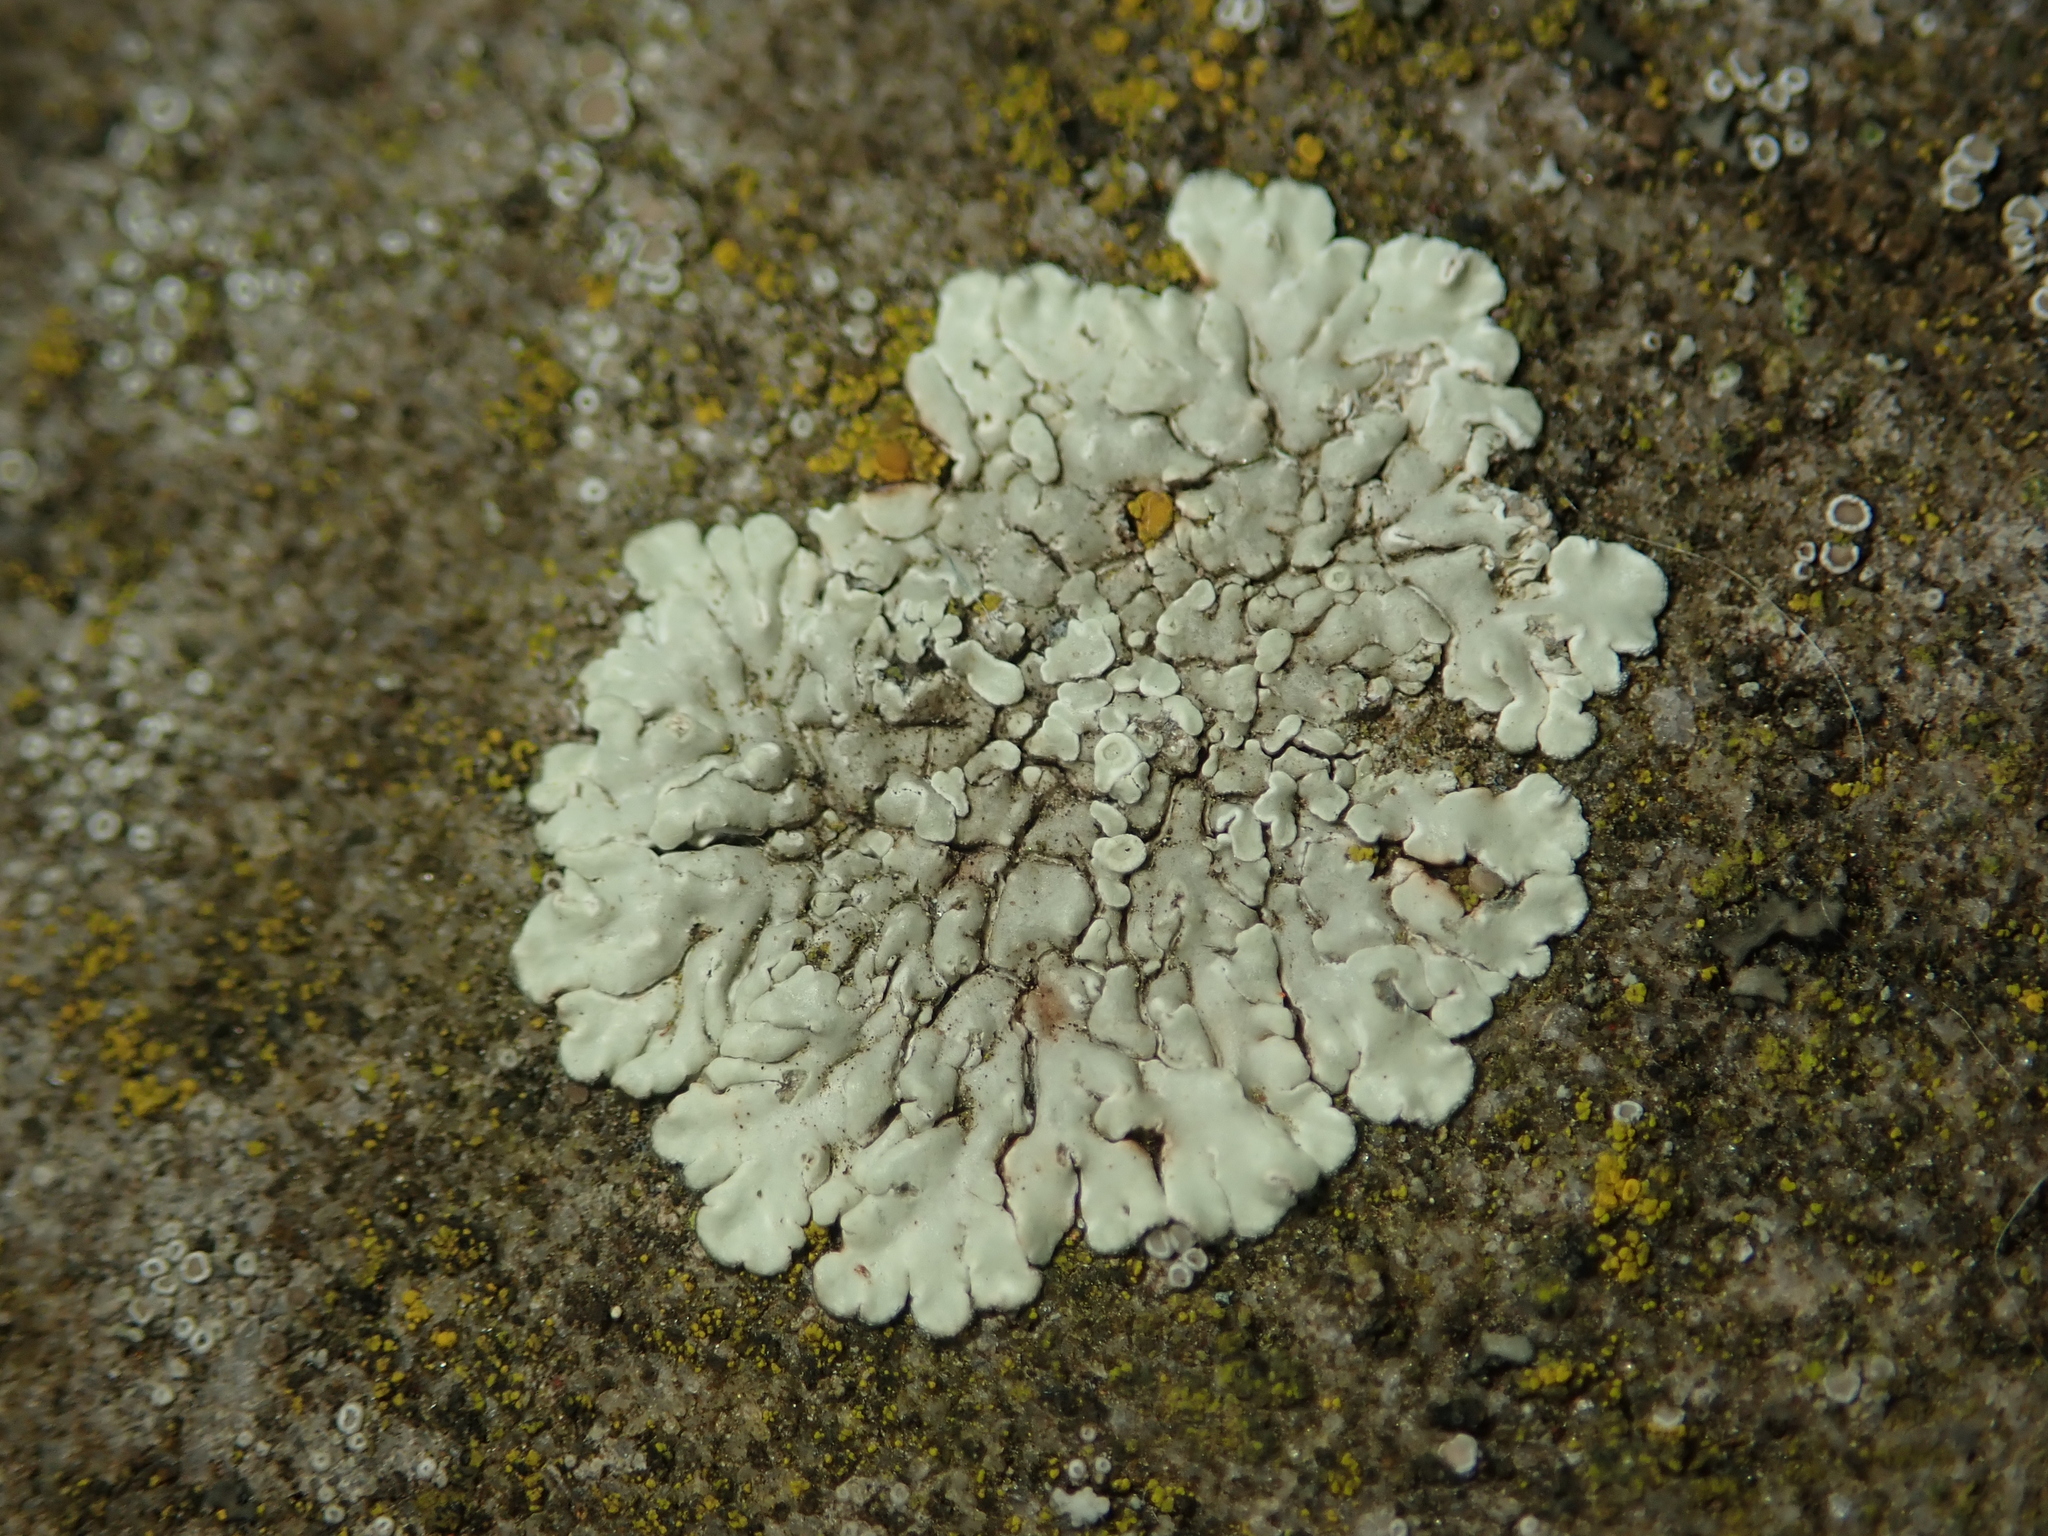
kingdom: Fungi
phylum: Ascomycota
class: Lecanoromycetes
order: Lecanorales
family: Lecanoraceae
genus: Protoparmeliopsis
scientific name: Protoparmeliopsis muralis
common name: Stonewall rim lichen
